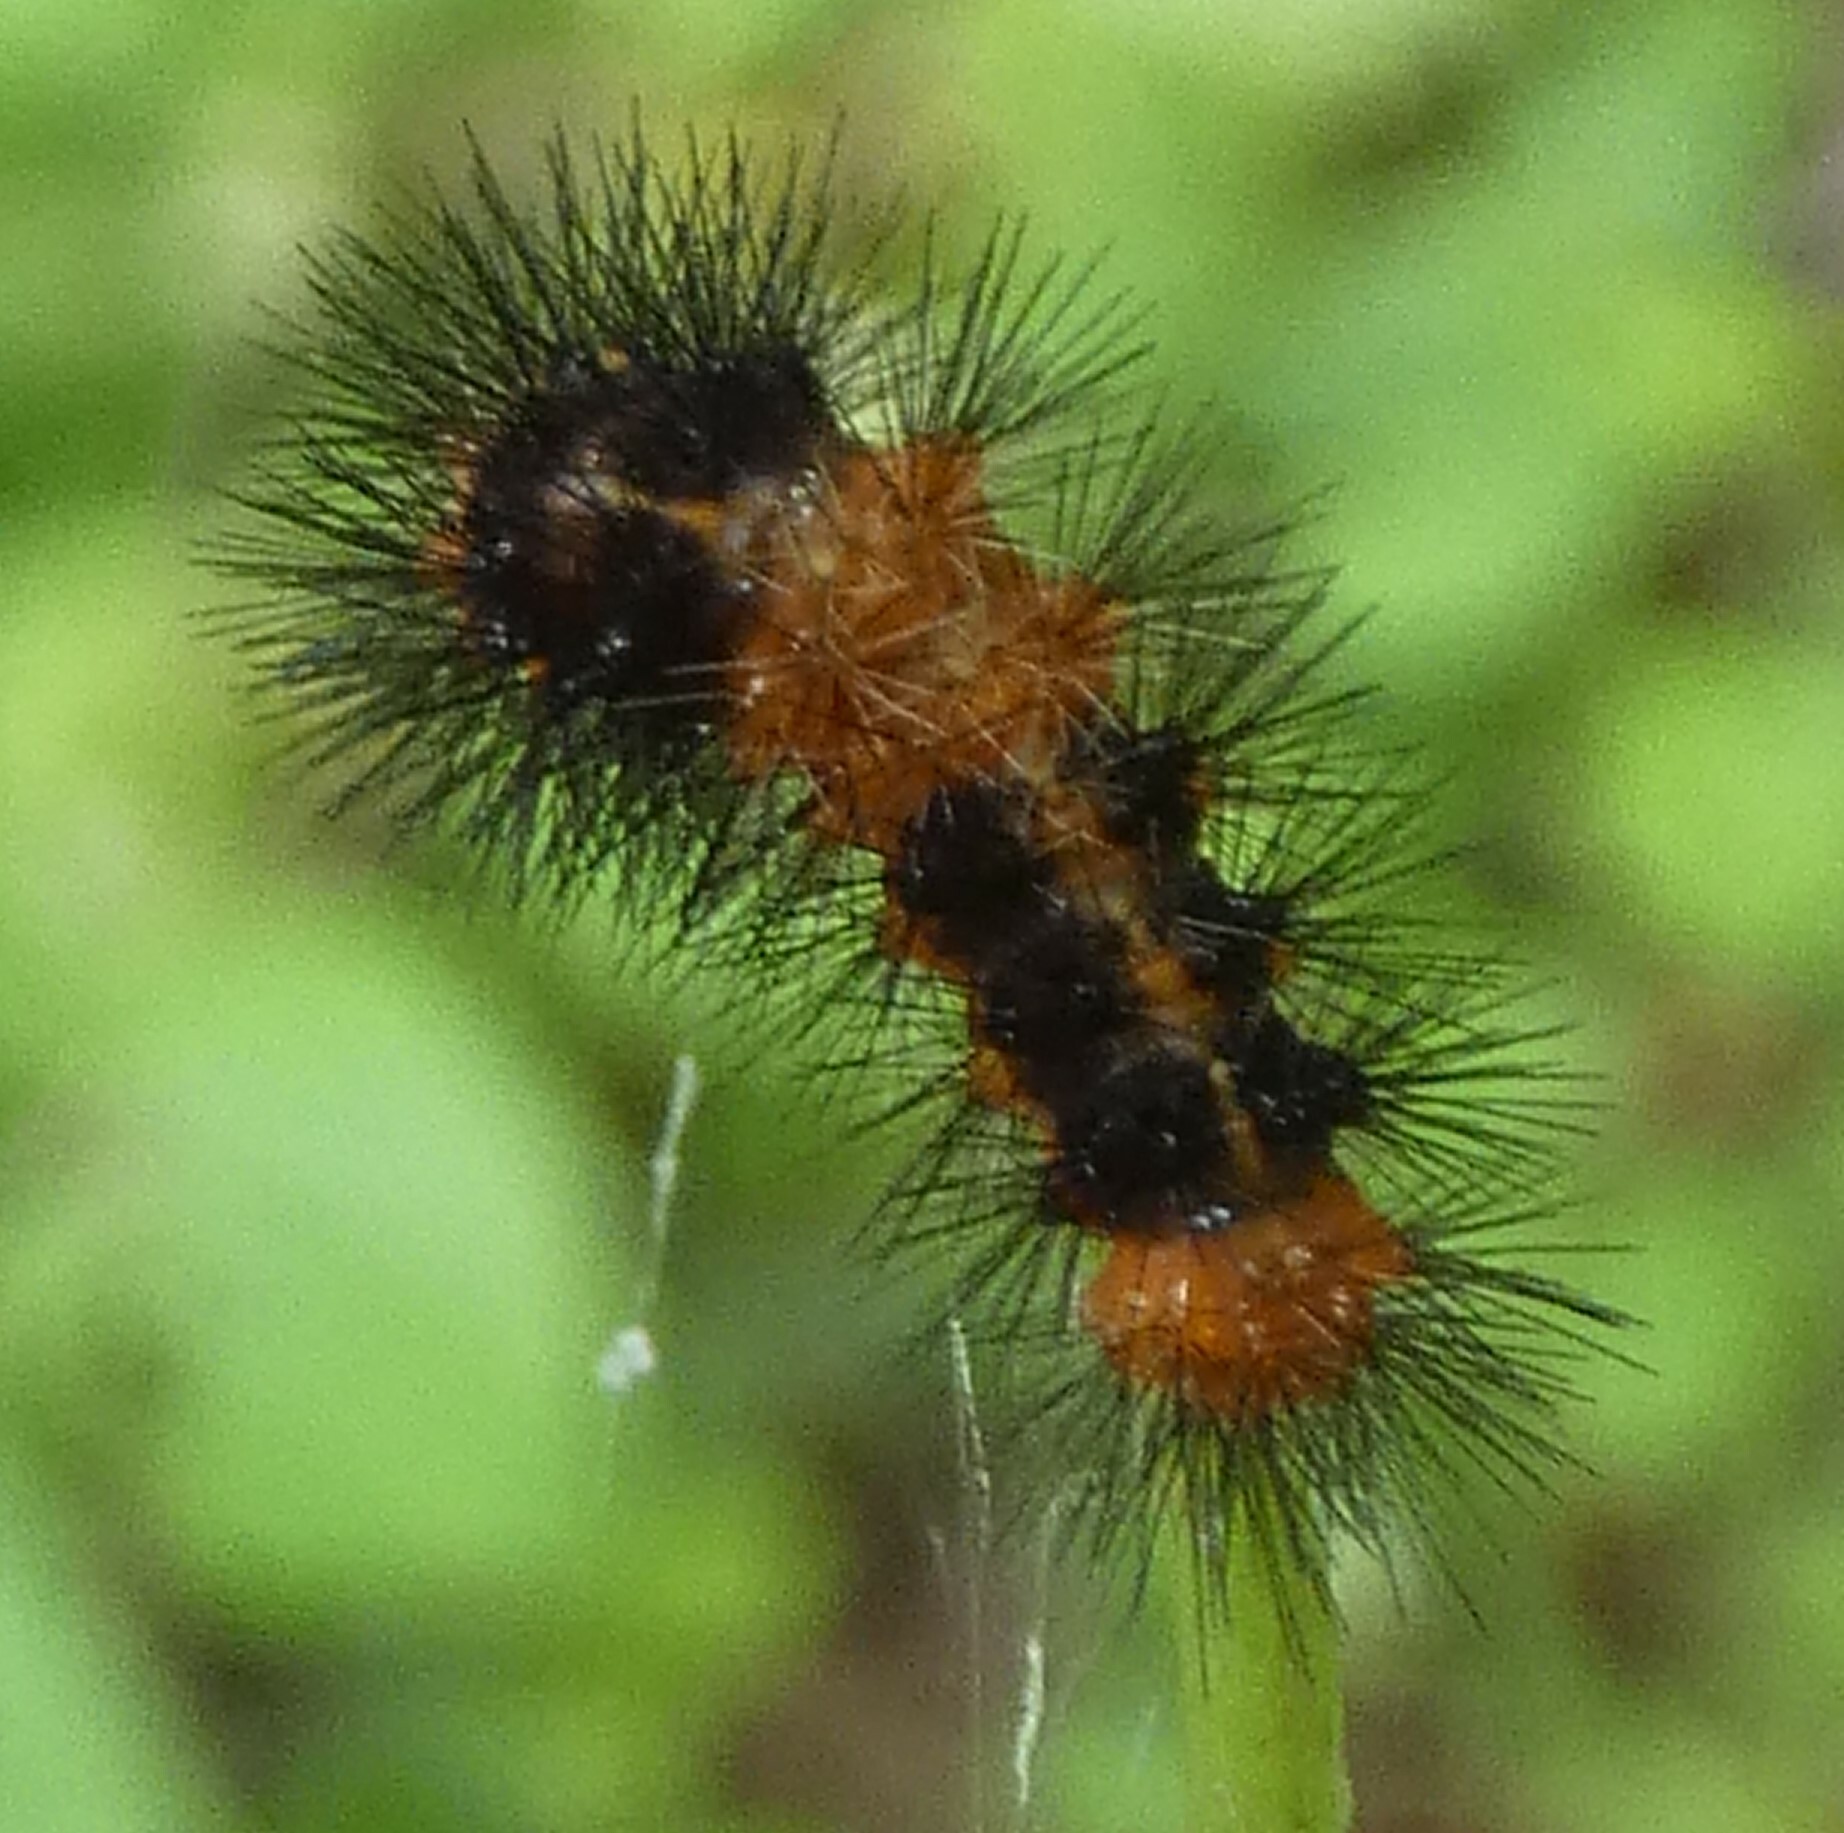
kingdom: Animalia
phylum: Arthropoda
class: Insecta
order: Lepidoptera
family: Erebidae
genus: Hypercompe
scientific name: Hypercompe scribonia
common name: Giant leopard moth
